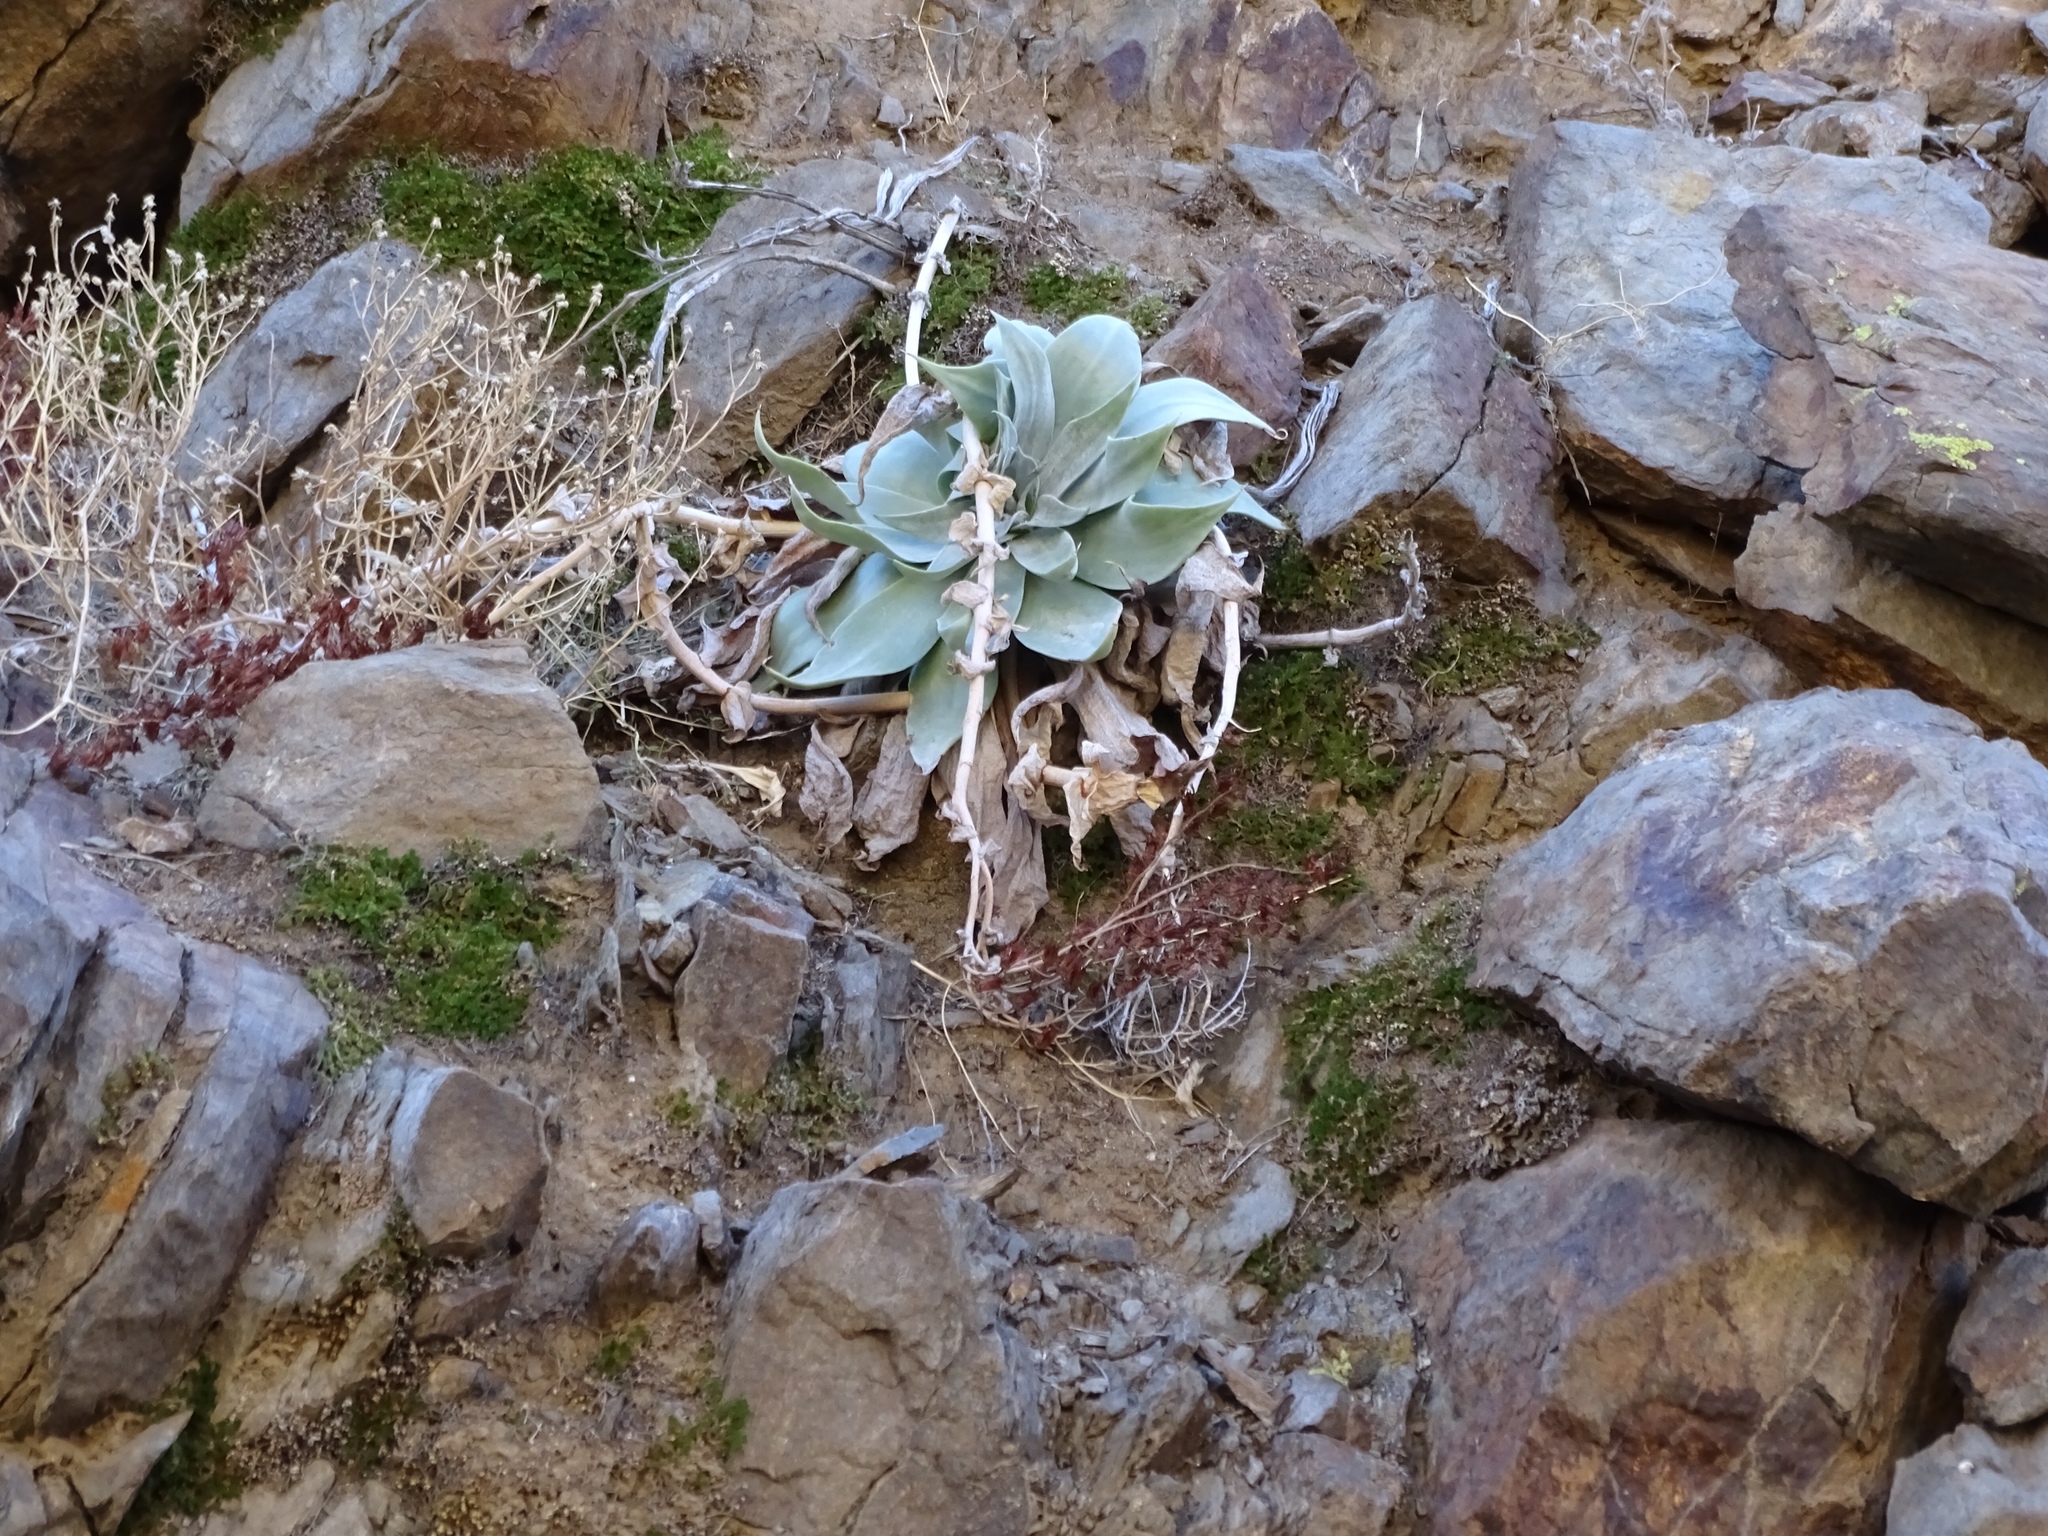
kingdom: Plantae
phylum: Tracheophyta
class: Magnoliopsida
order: Saxifragales
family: Crassulaceae
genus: Dudleya
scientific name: Dudleya arizonica
